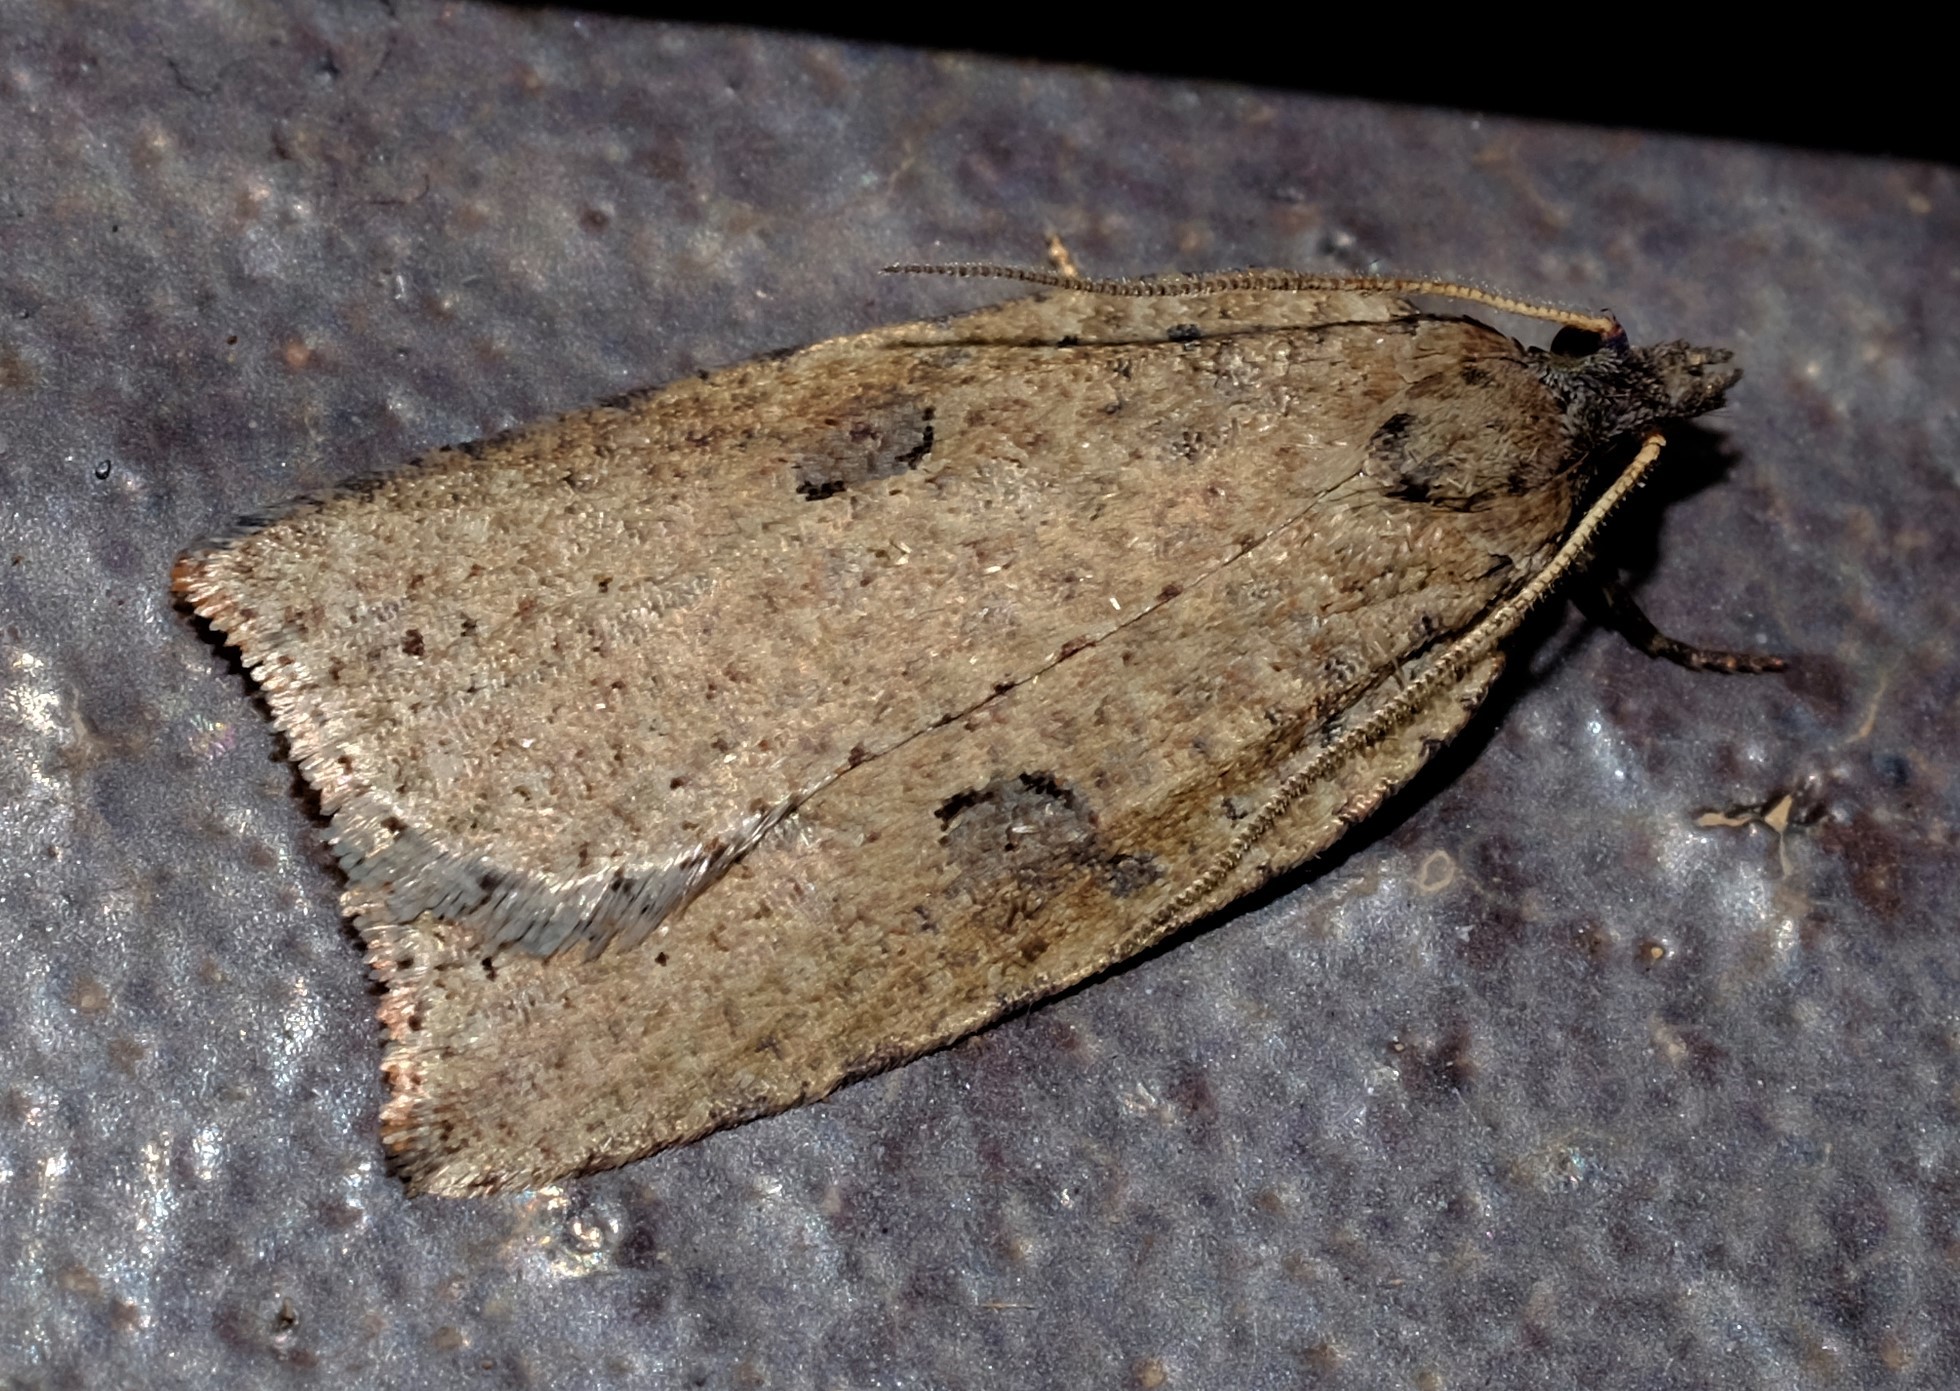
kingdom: Animalia
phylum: Arthropoda
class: Insecta
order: Lepidoptera
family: Tortricidae
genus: Meritastis
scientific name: Meritastis polygraphana
